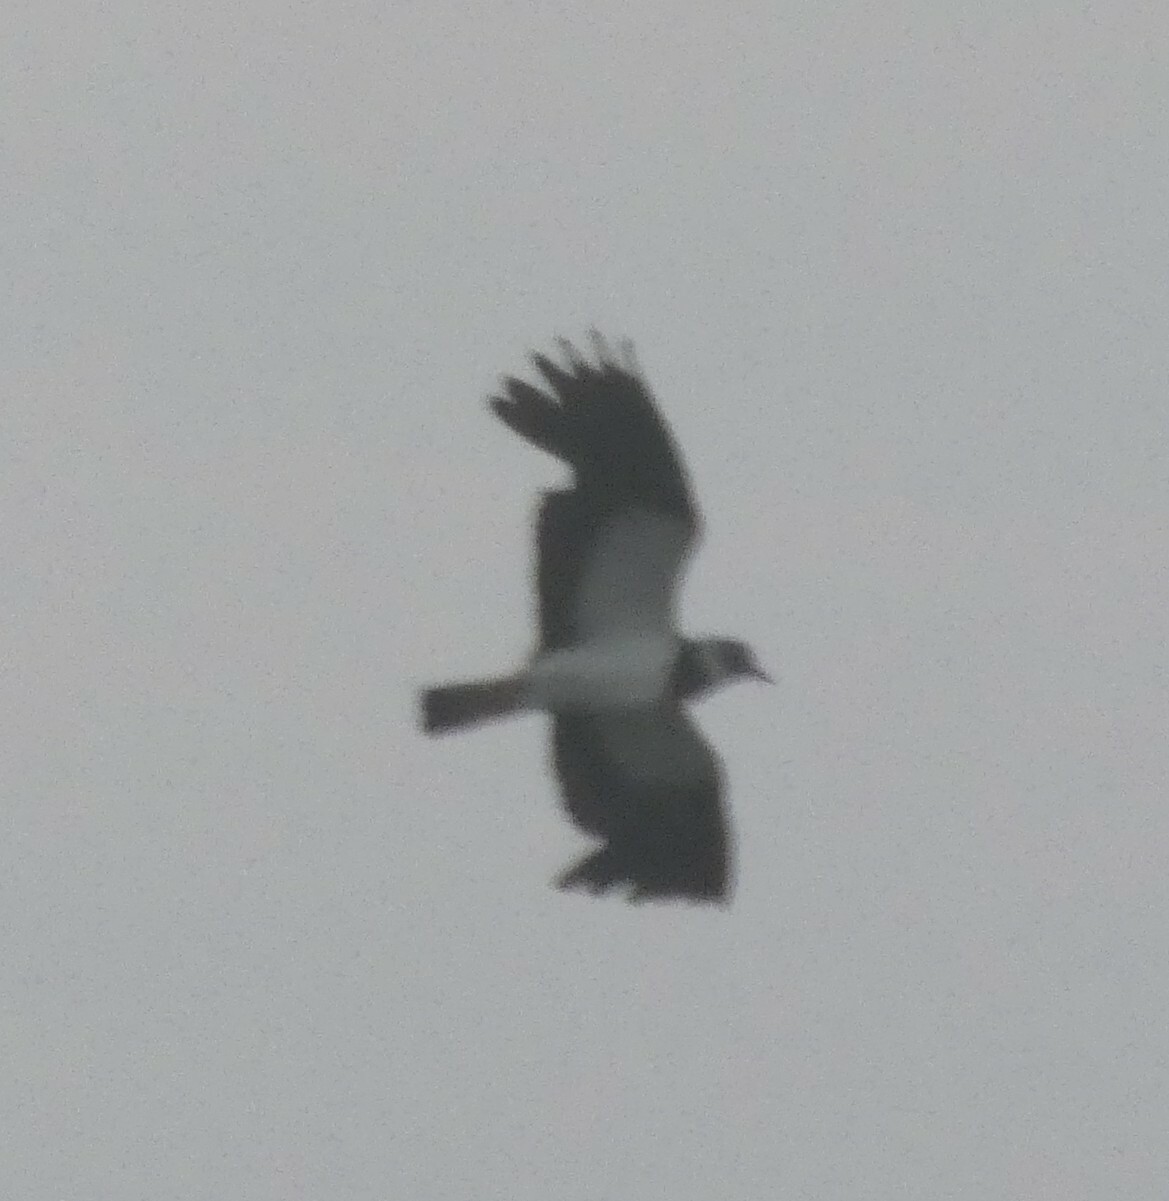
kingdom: Animalia
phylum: Chordata
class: Aves
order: Charadriiformes
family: Charadriidae
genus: Vanellus
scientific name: Vanellus vanellus
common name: Northern lapwing
